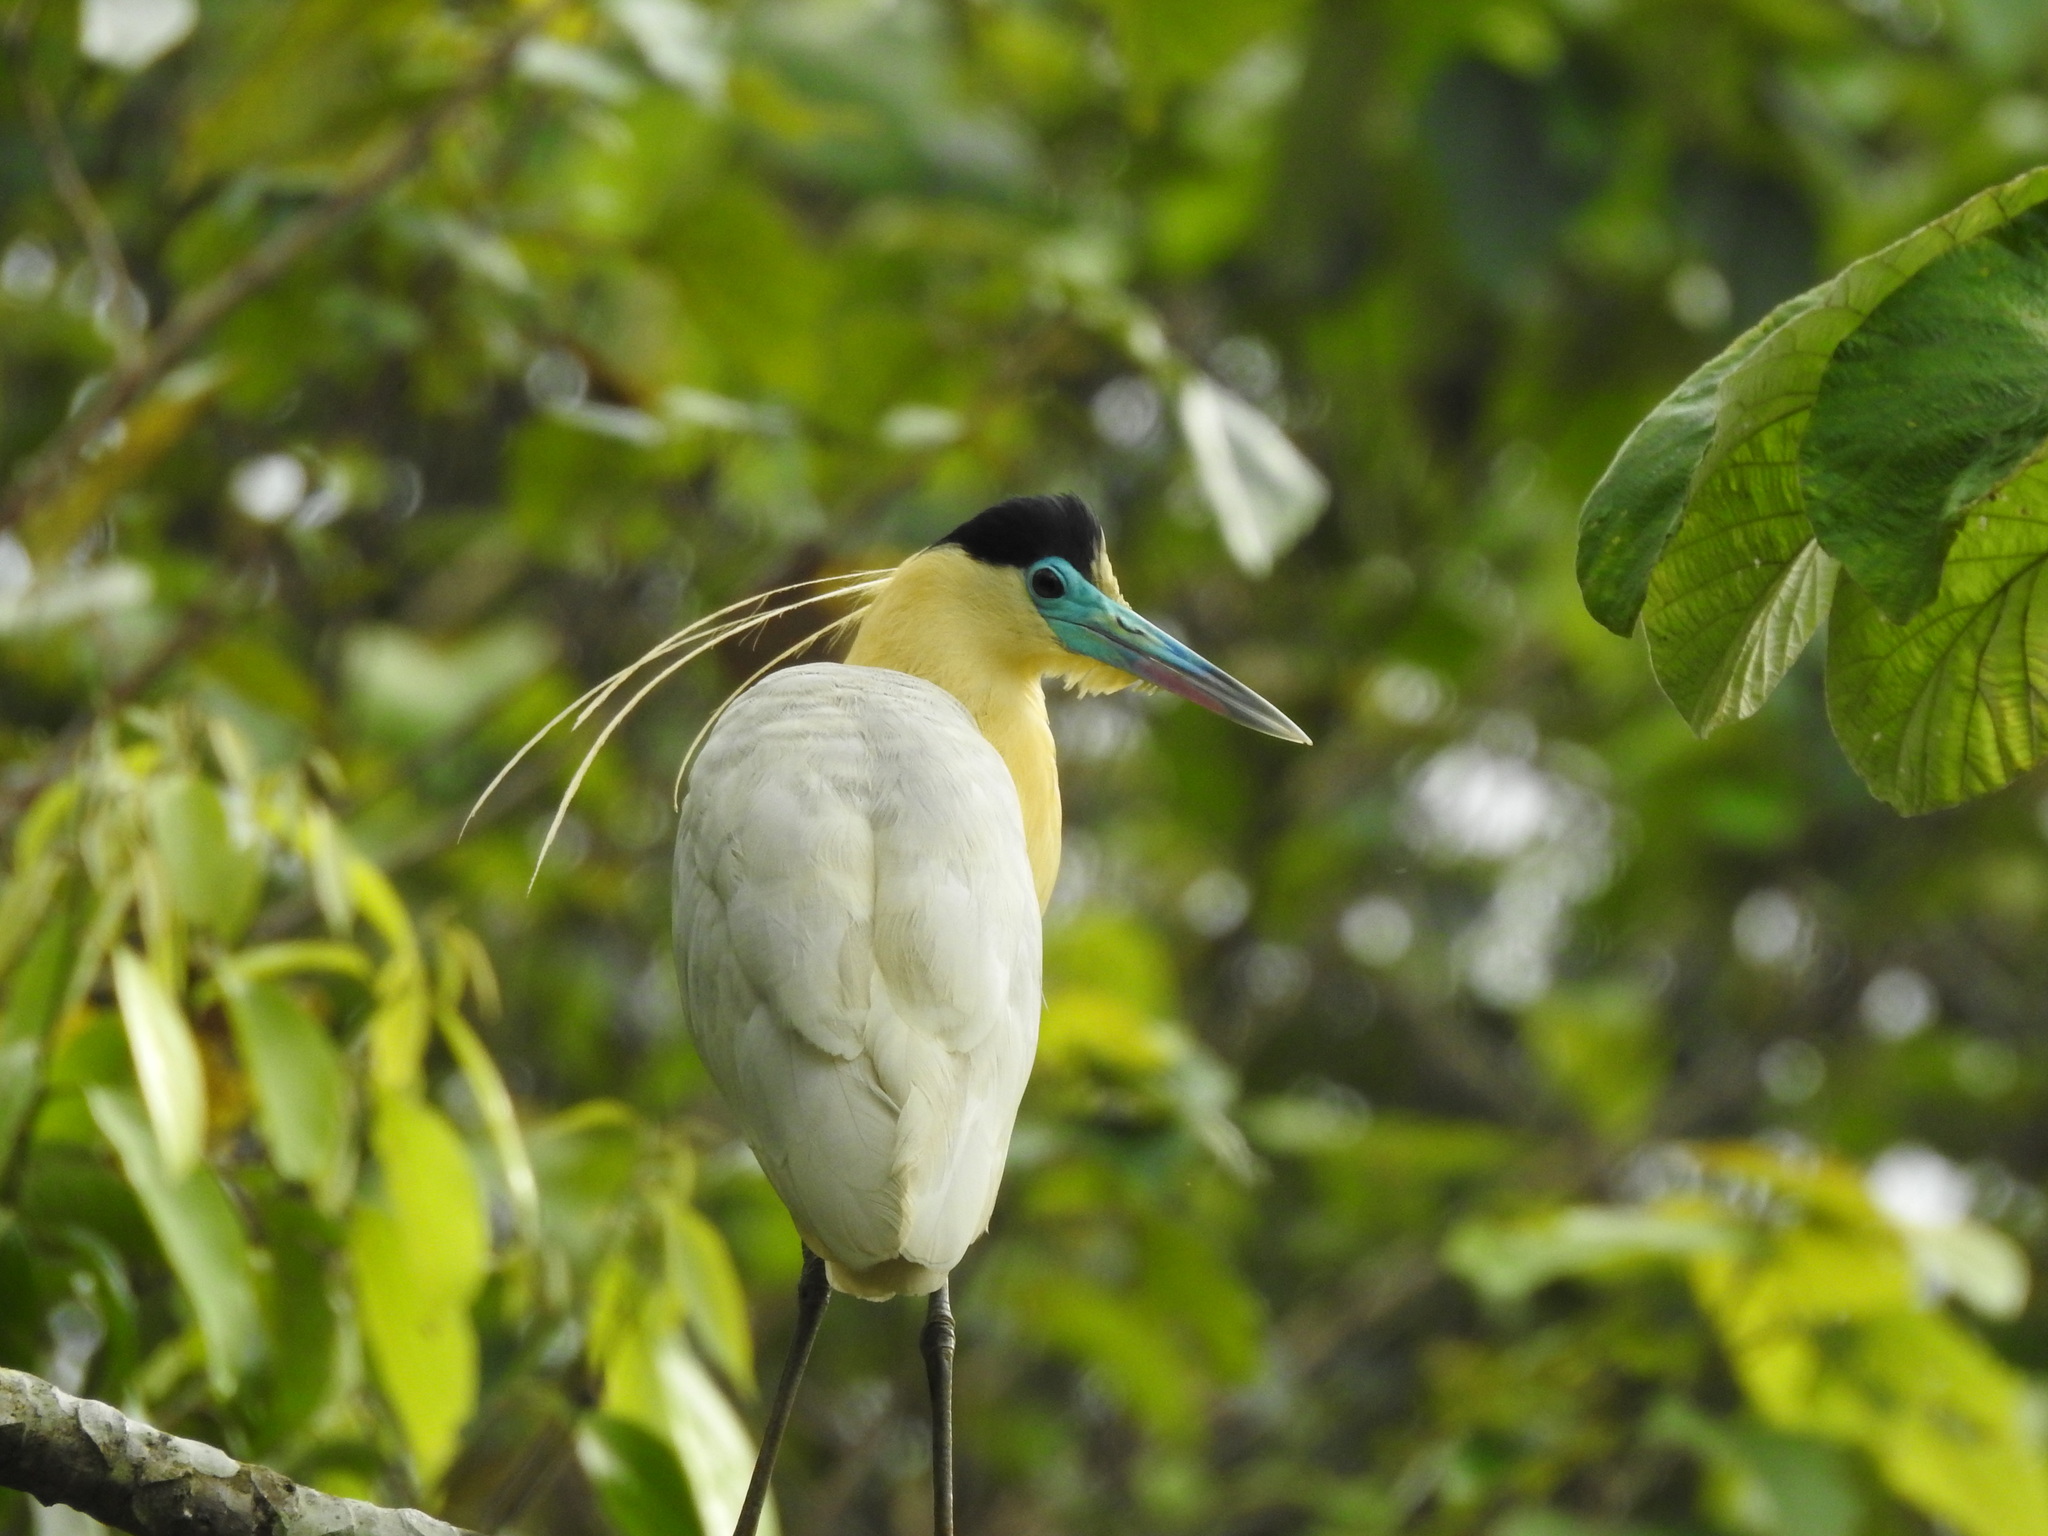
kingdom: Animalia
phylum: Chordata
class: Aves
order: Pelecaniformes
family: Ardeidae
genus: Pilherodius
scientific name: Pilherodius pileatus
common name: Capped heron
